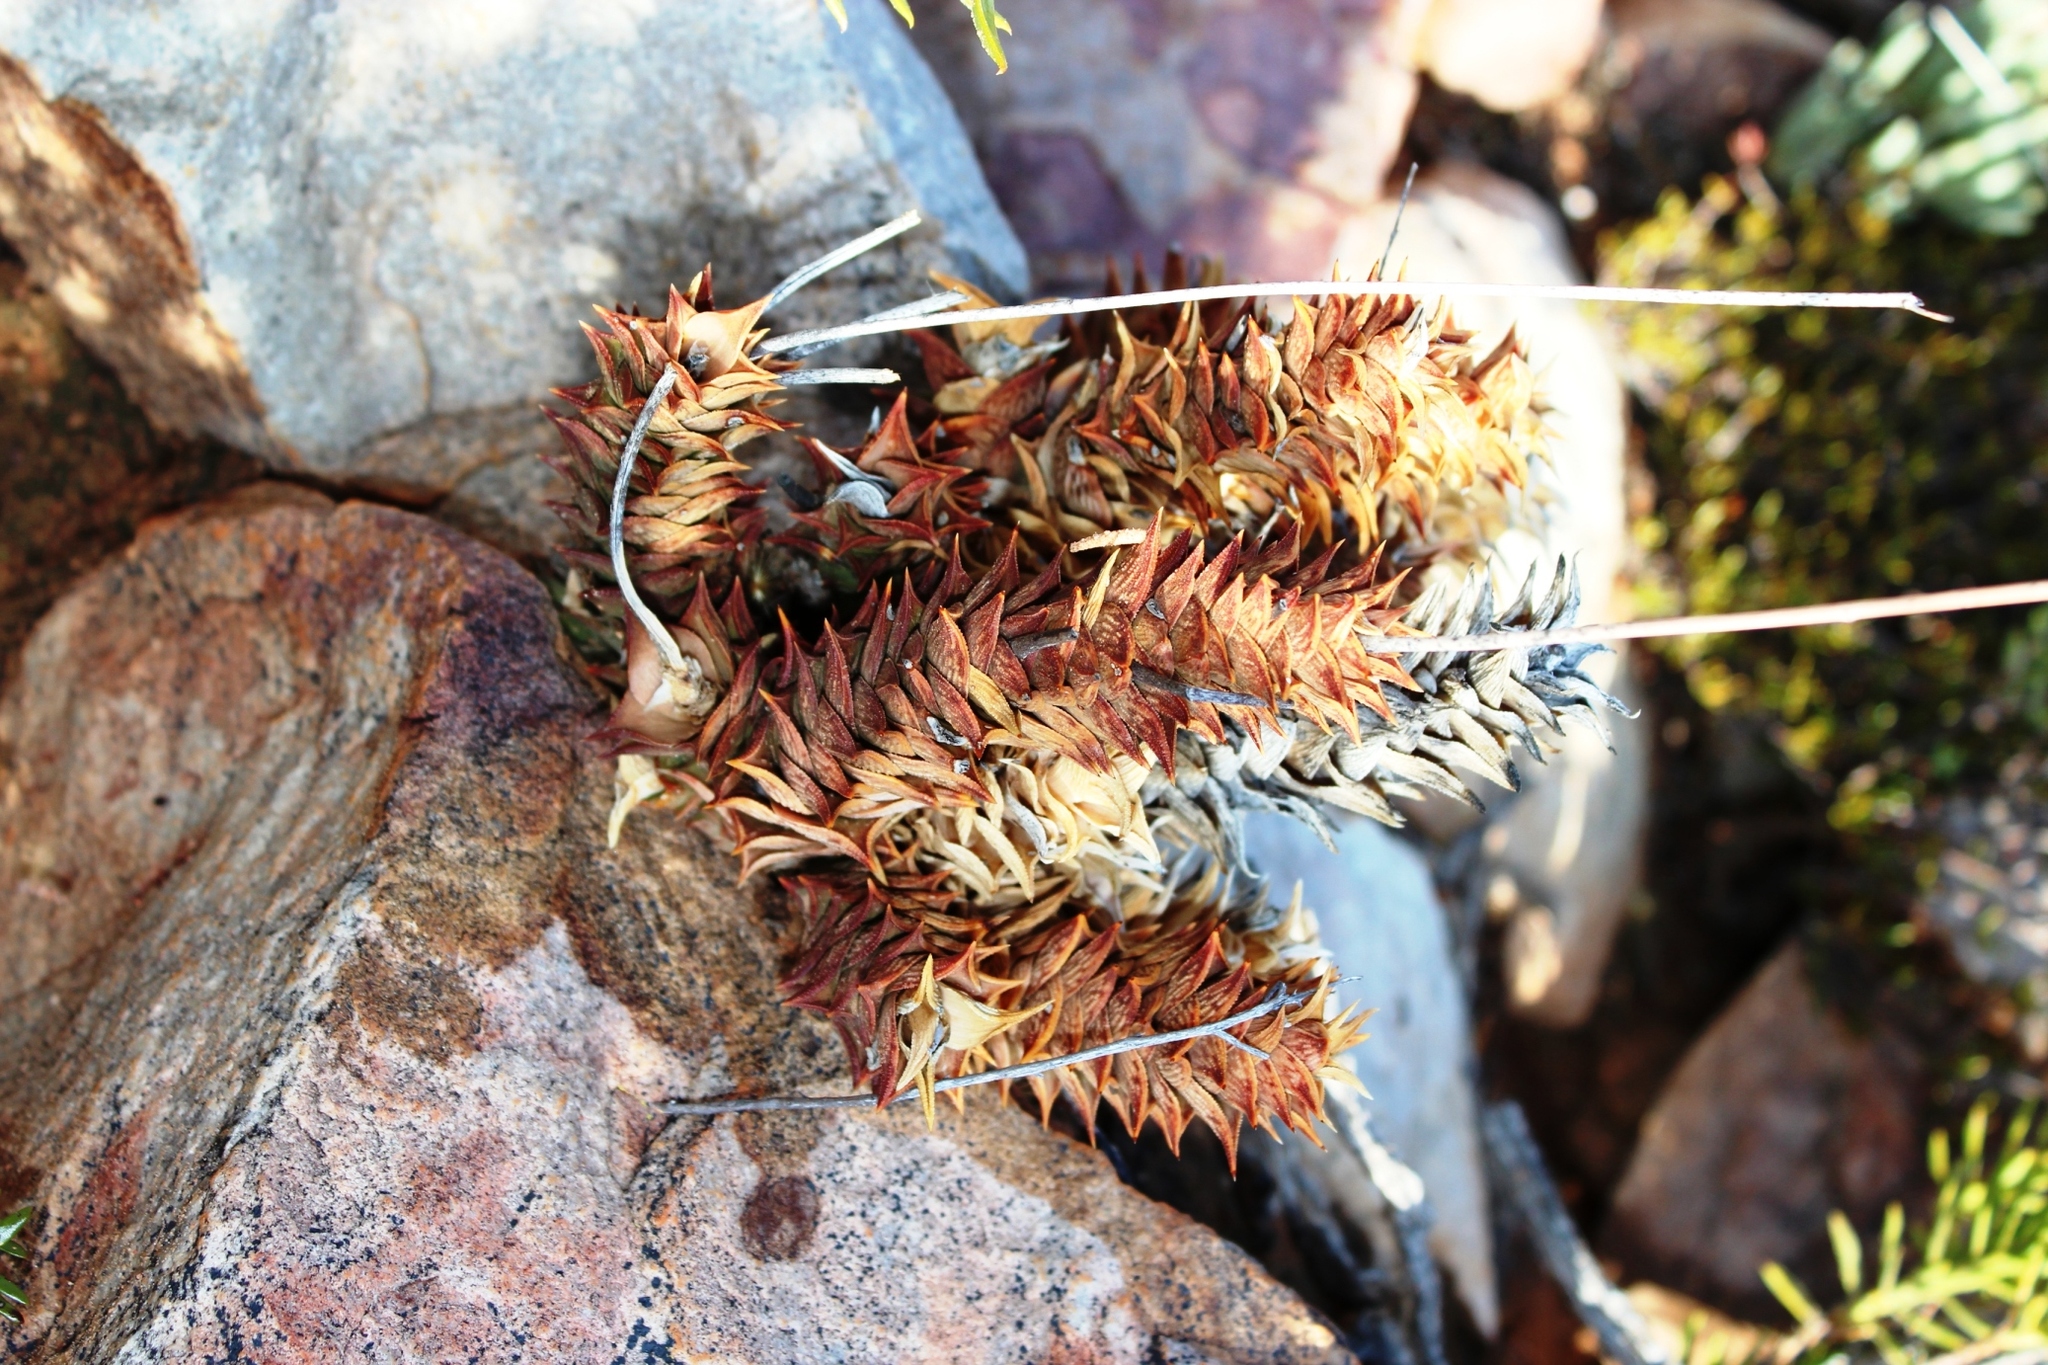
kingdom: Plantae
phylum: Tracheophyta
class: Liliopsida
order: Asparagales
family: Asphodelaceae
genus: Astroloba
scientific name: Astroloba corrugata
